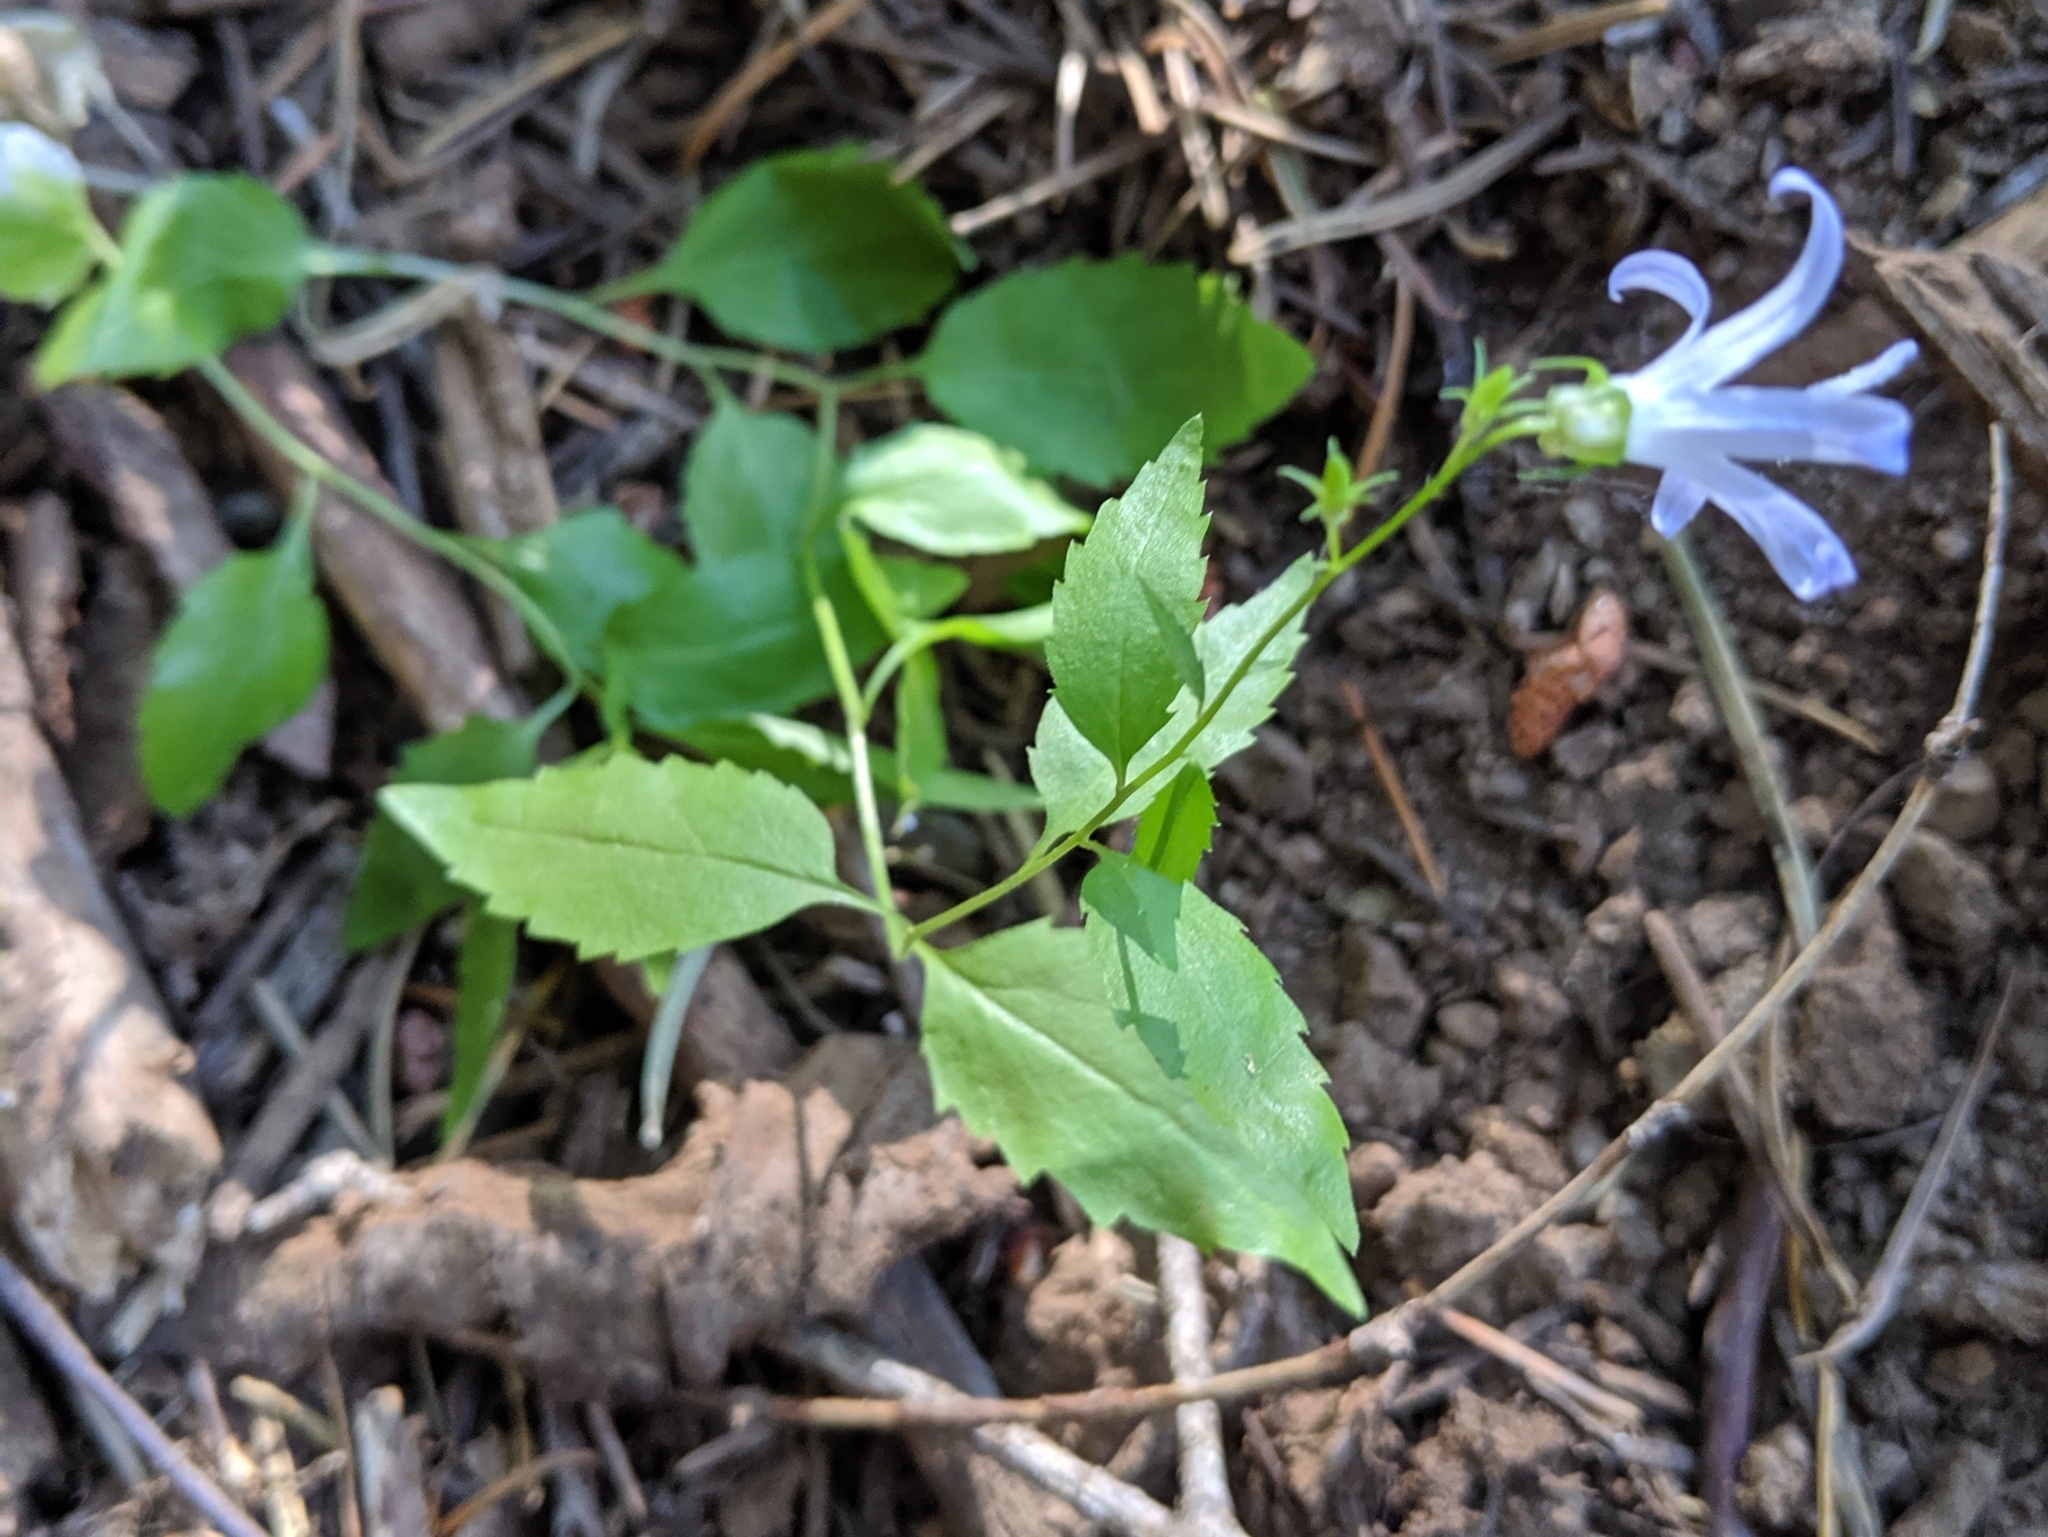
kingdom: Plantae
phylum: Tracheophyta
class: Magnoliopsida
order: Asterales
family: Campanulaceae
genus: Smithiastrum
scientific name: Smithiastrum prenanthoides
